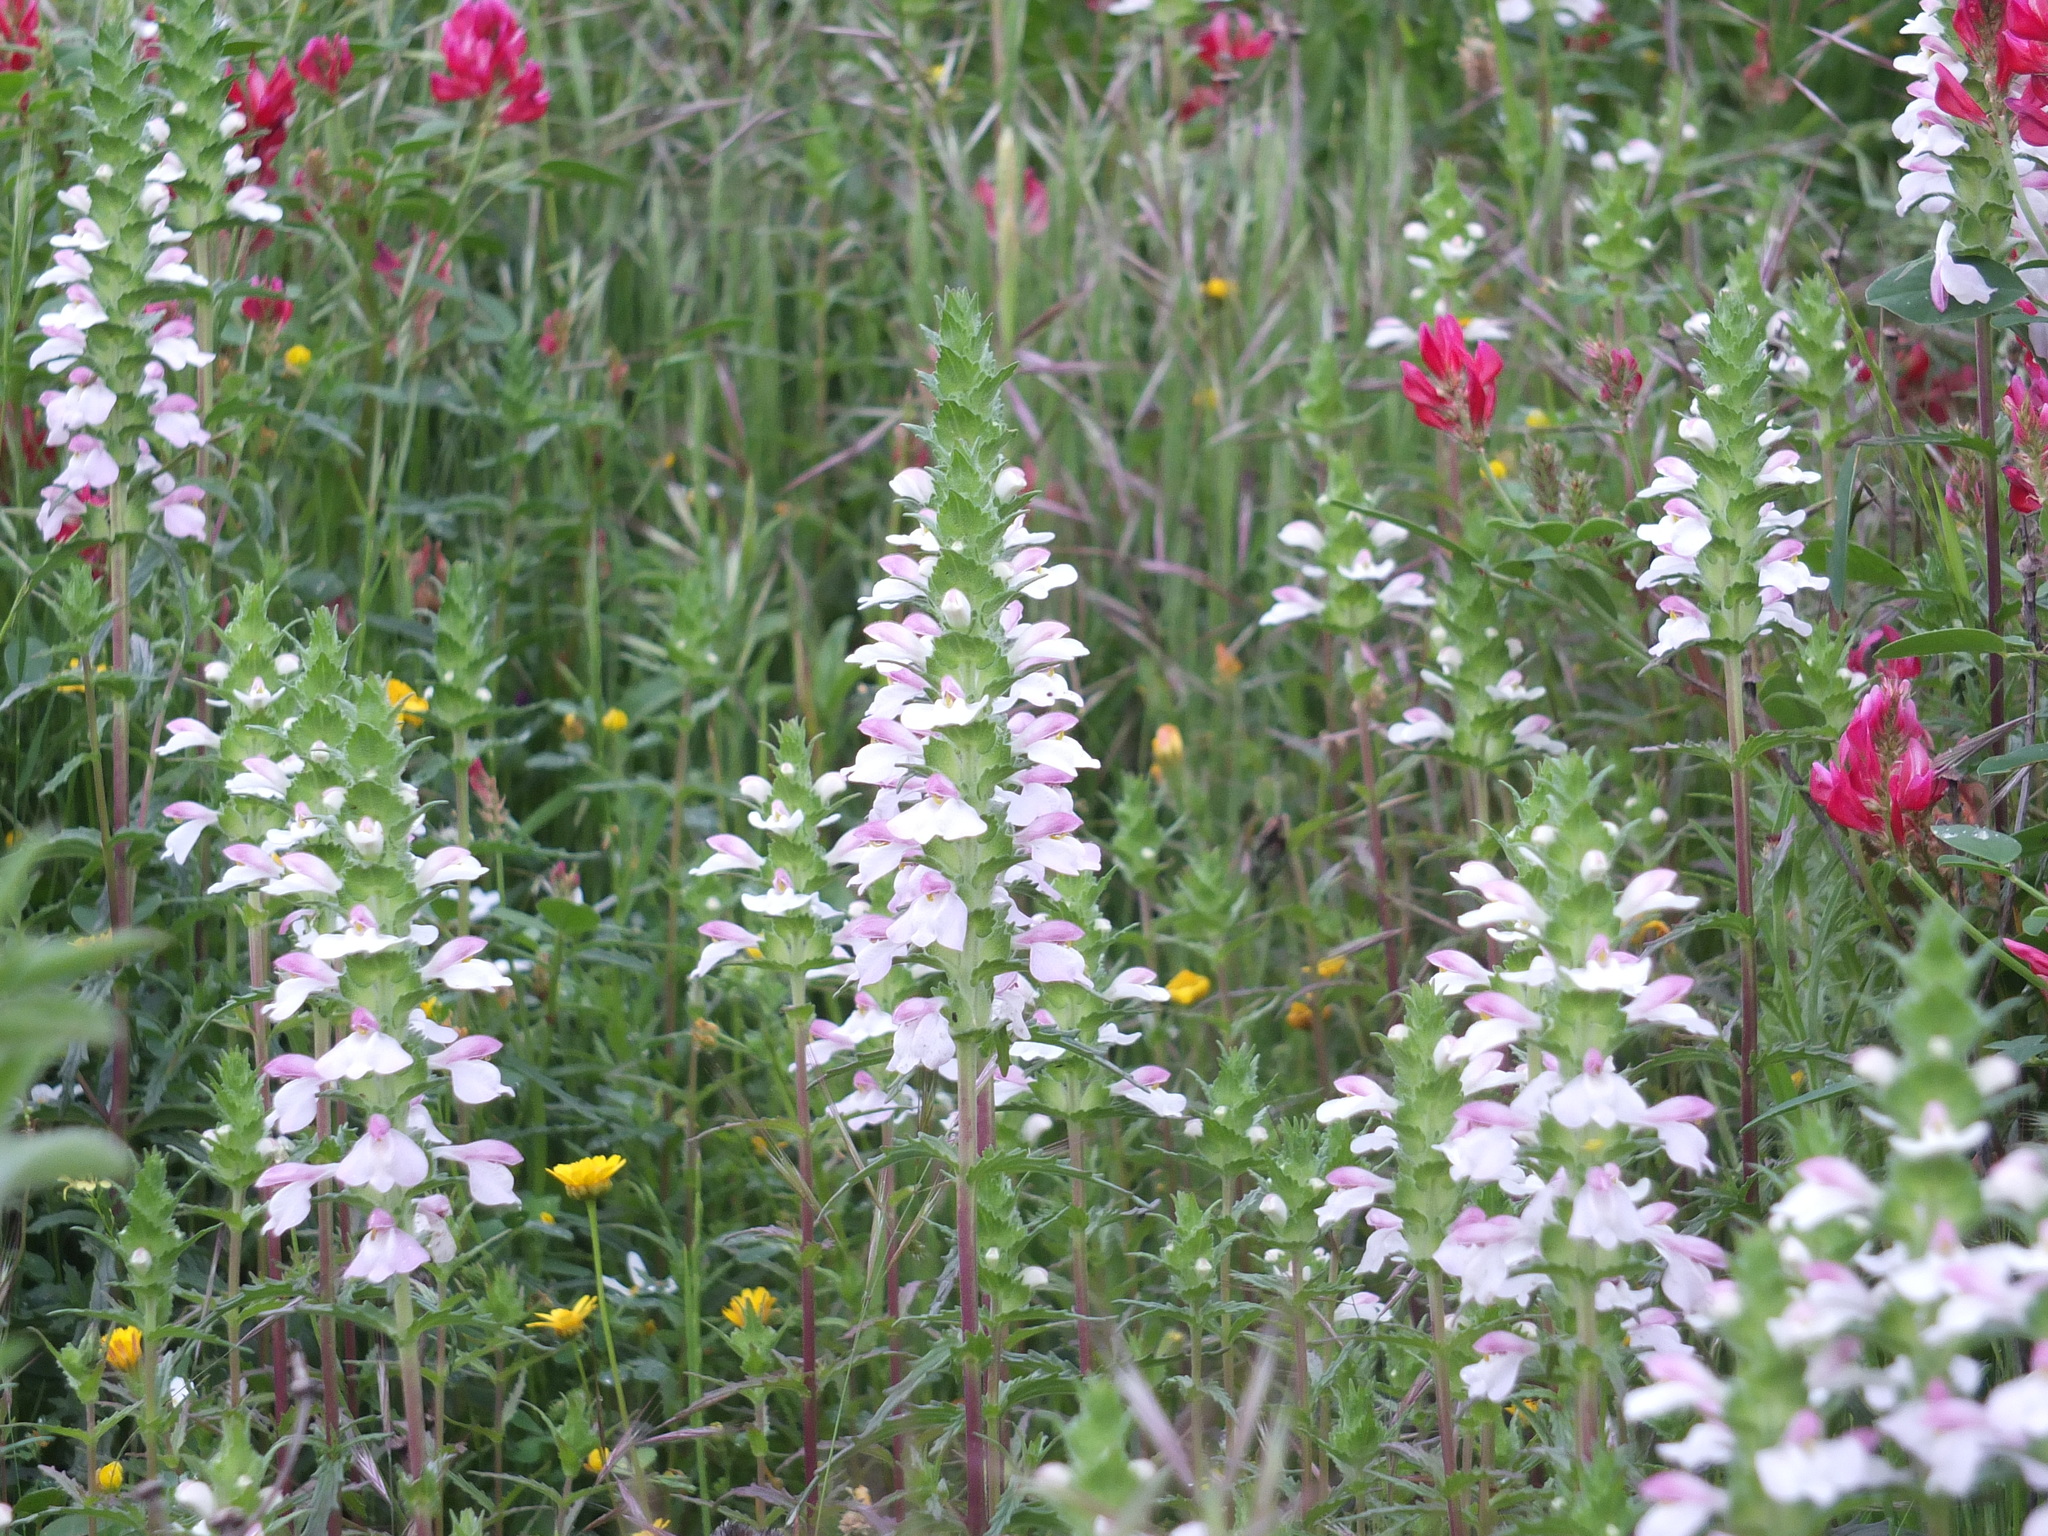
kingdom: Plantae
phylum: Tracheophyta
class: Magnoliopsida
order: Lamiales
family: Orobanchaceae
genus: Bellardia
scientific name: Bellardia trixago
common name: Mediterranean lineseed
